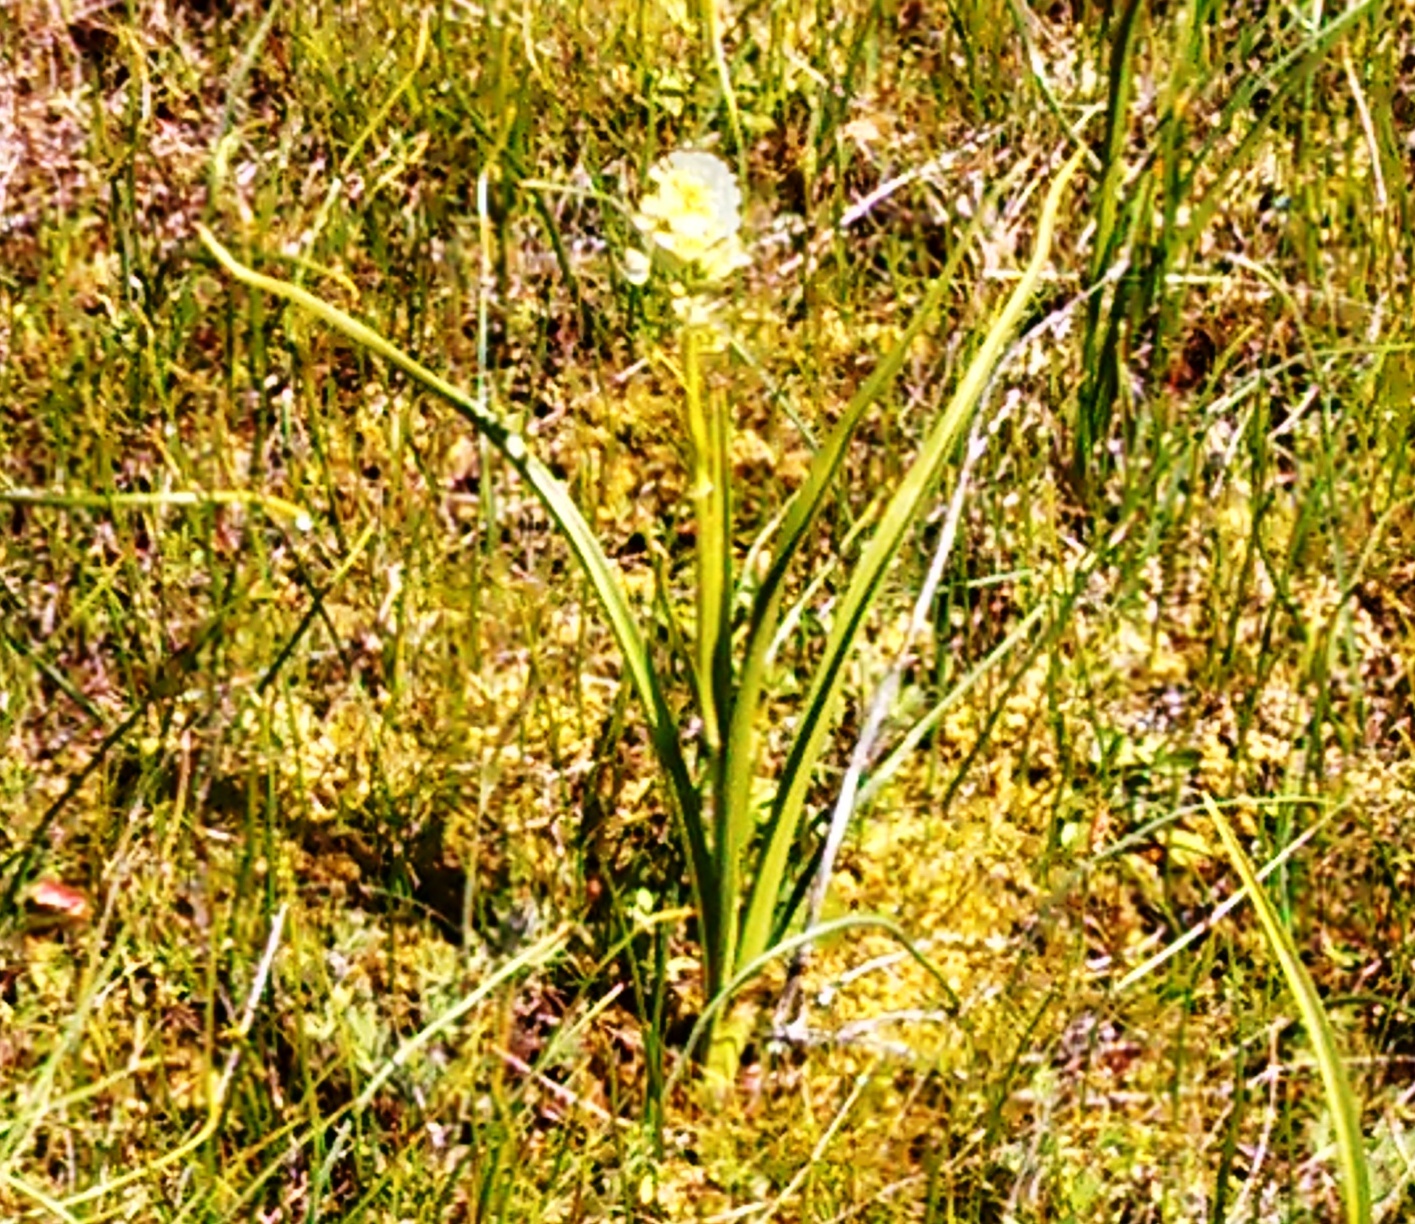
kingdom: Plantae
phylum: Tracheophyta
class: Liliopsida
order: Liliales
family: Melanthiaceae
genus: Toxicoscordion
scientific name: Toxicoscordion venenosum
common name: Meadow death camas
